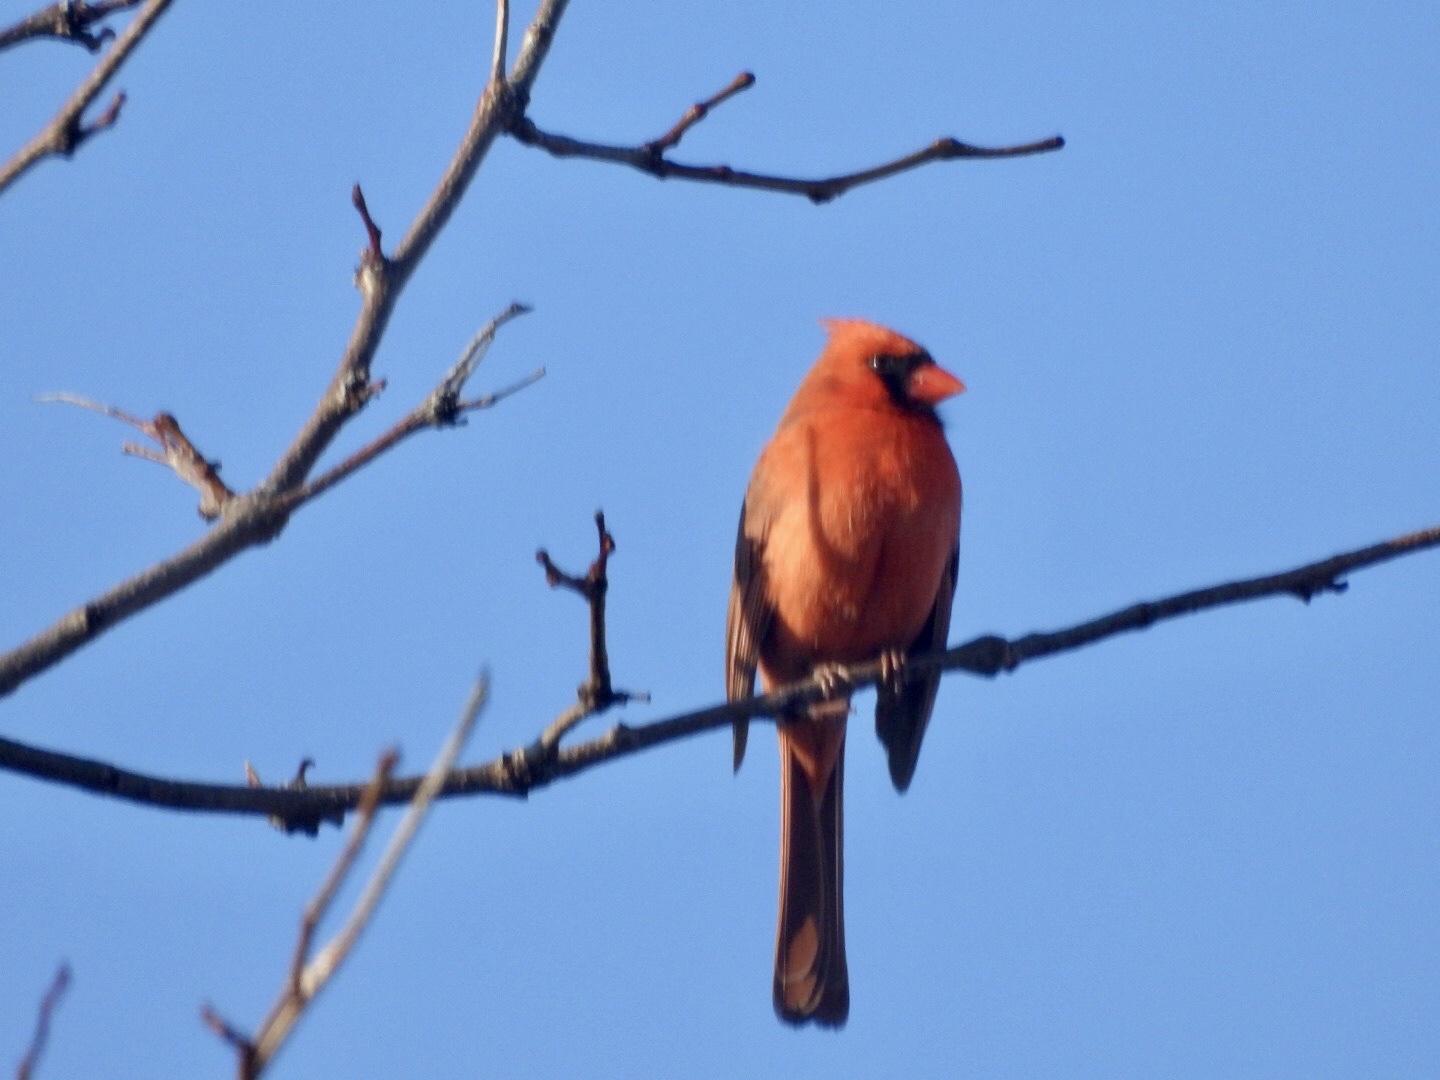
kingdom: Animalia
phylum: Chordata
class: Aves
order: Passeriformes
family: Cardinalidae
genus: Cardinalis
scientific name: Cardinalis cardinalis
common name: Northern cardinal
